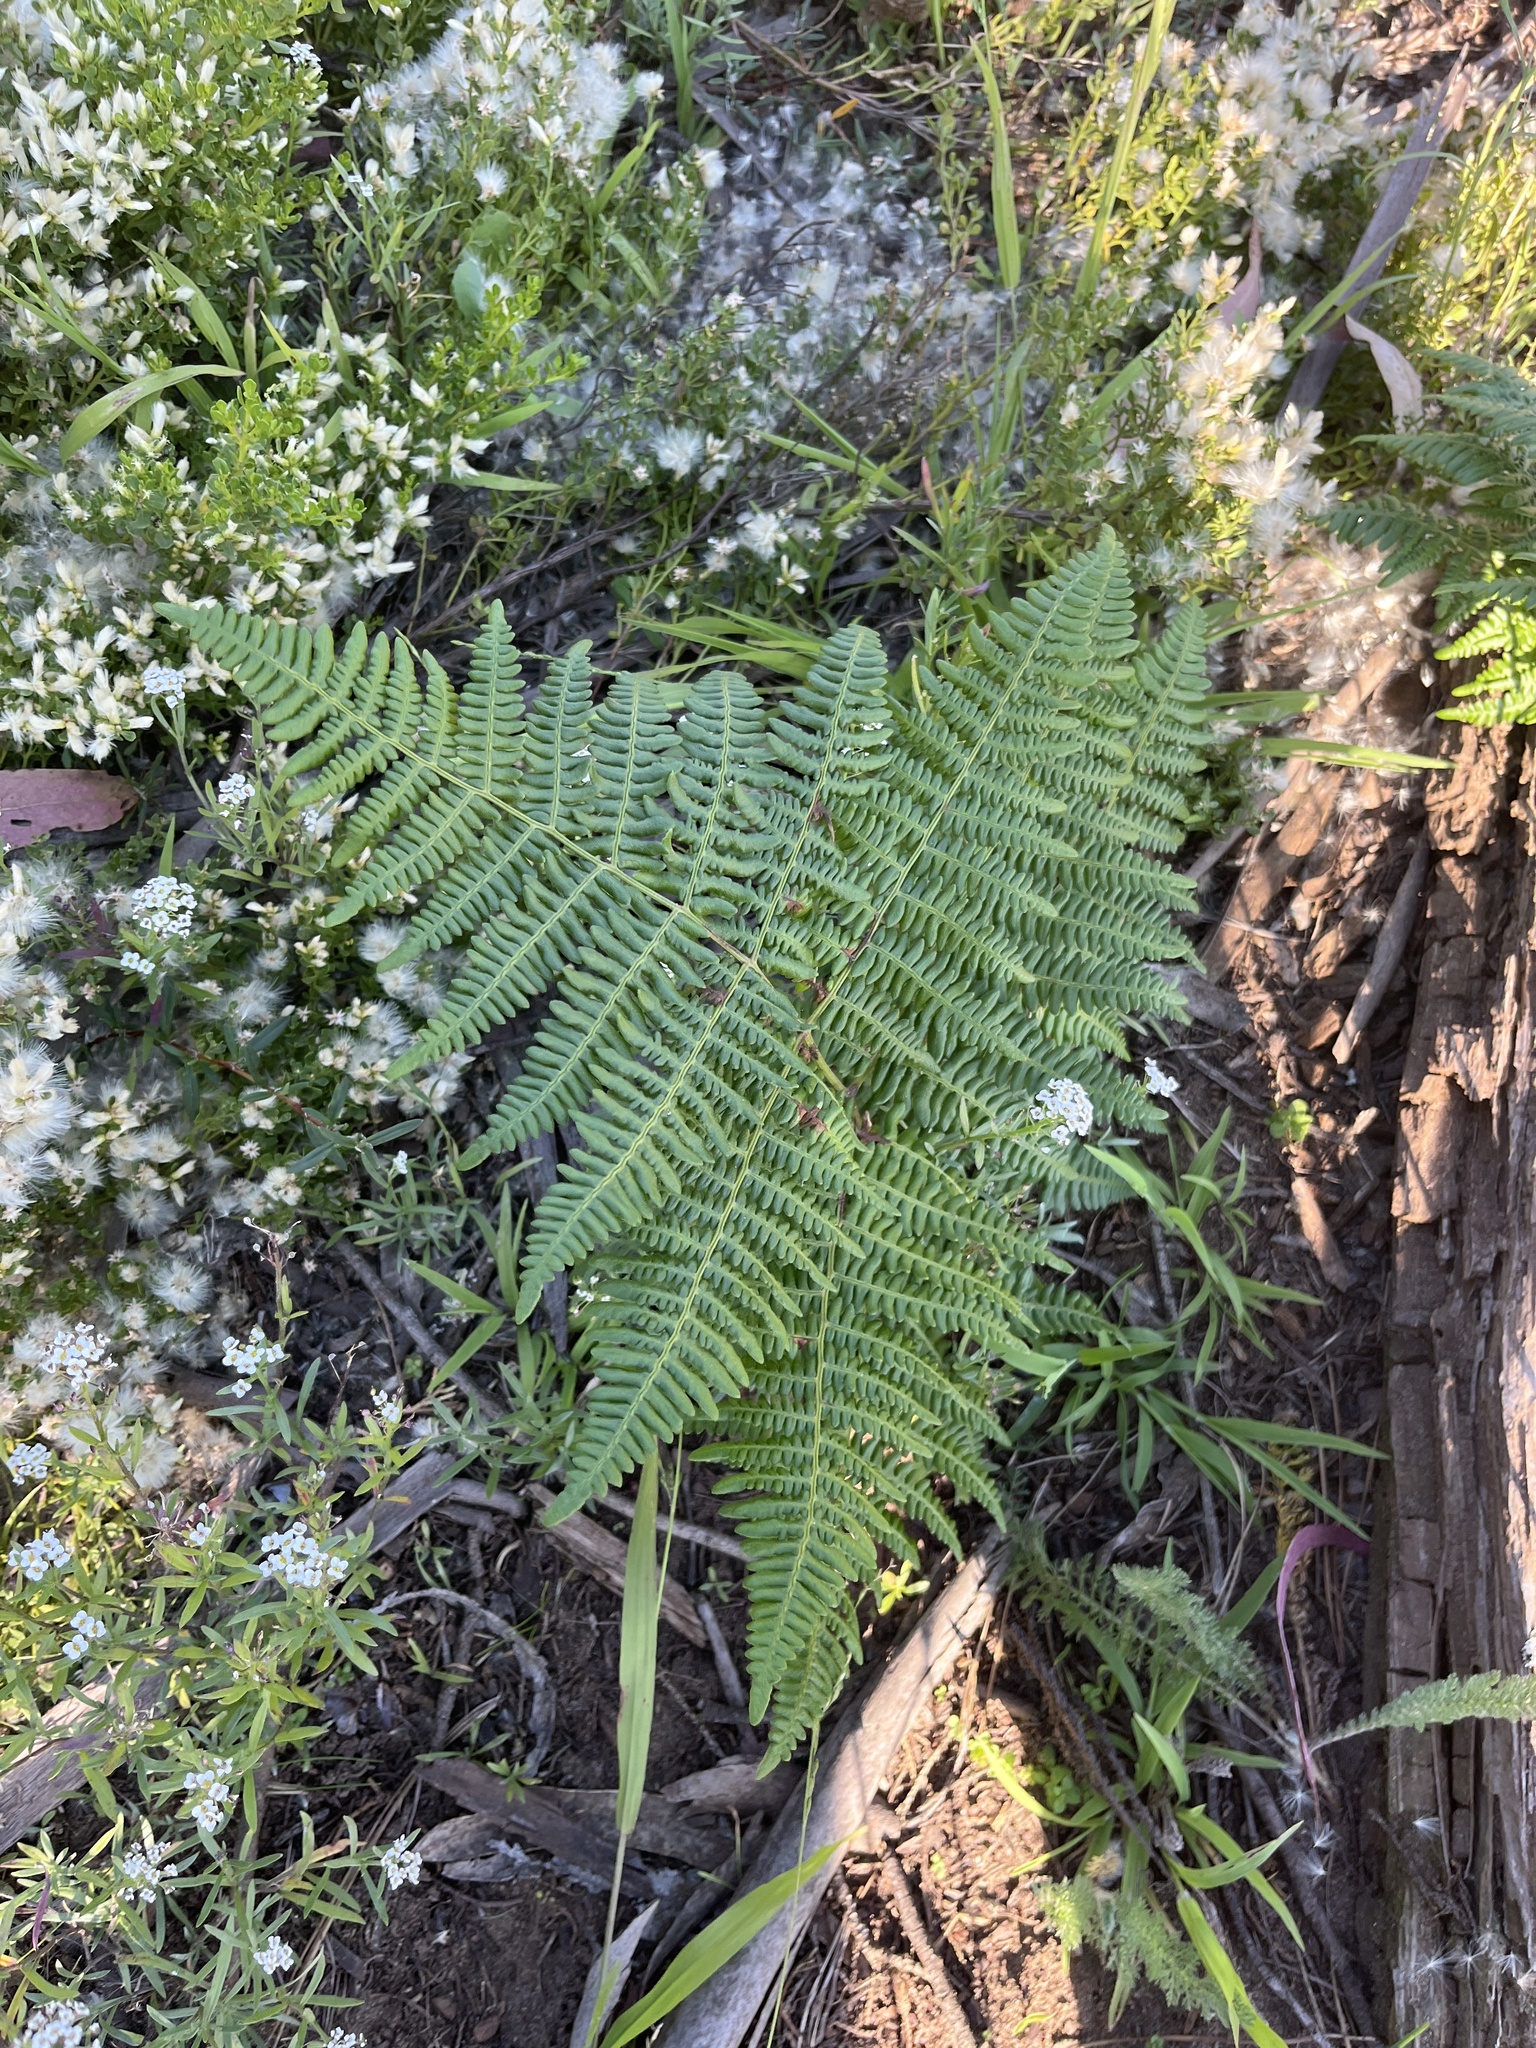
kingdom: Plantae
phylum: Tracheophyta
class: Polypodiopsida
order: Polypodiales
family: Dennstaedtiaceae
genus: Pteridium
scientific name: Pteridium aquilinum
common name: Bracken
